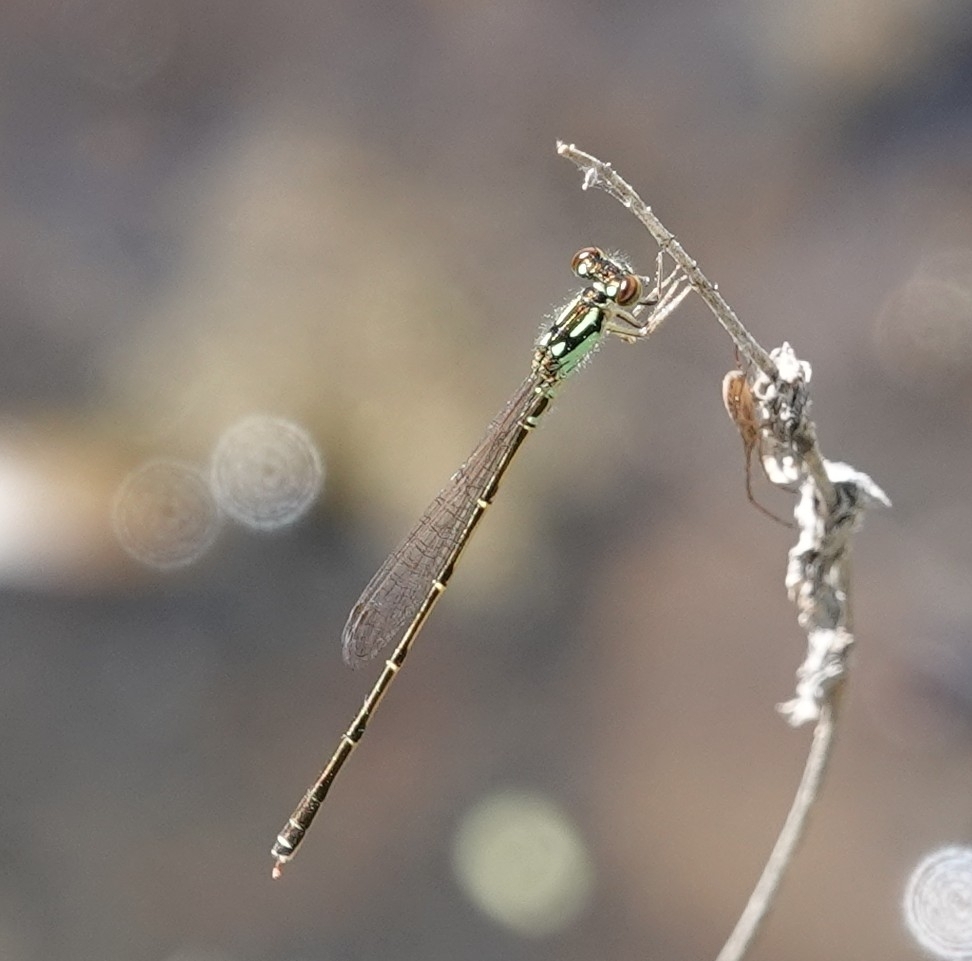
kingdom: Animalia
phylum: Arthropoda
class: Insecta
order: Odonata
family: Coenagrionidae
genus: Ischnura
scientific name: Ischnura posita
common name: Fragile forktail
